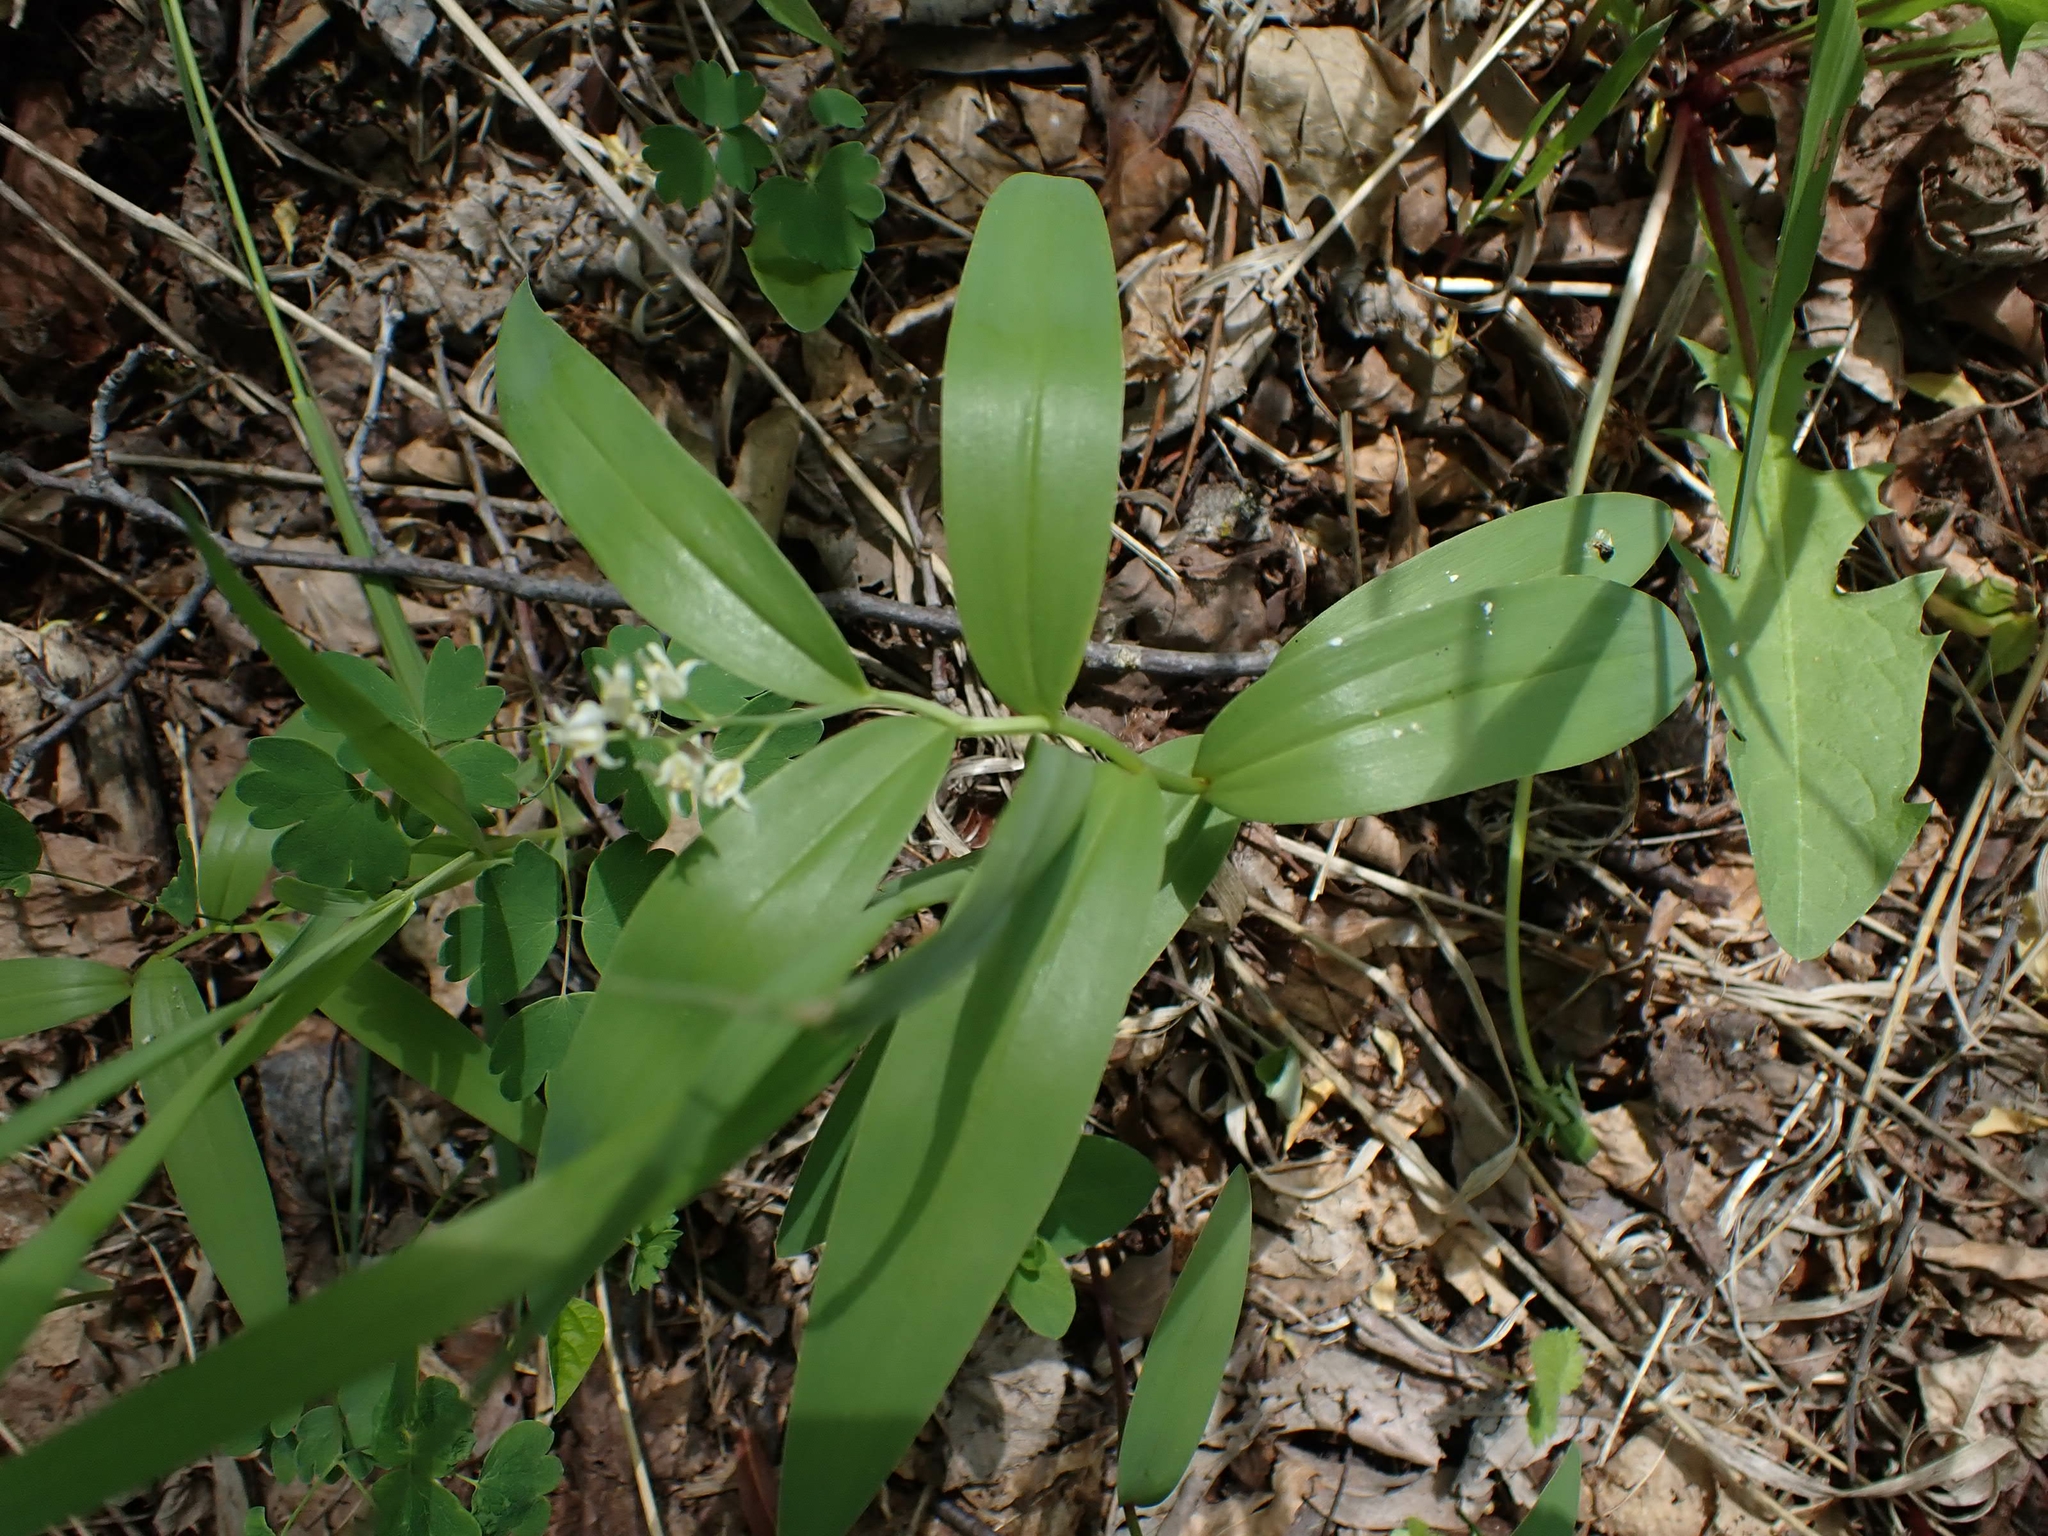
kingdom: Plantae
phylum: Tracheophyta
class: Liliopsida
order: Asparagales
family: Asparagaceae
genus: Maianthemum
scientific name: Maianthemum stellatum
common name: Little false solomon's seal
